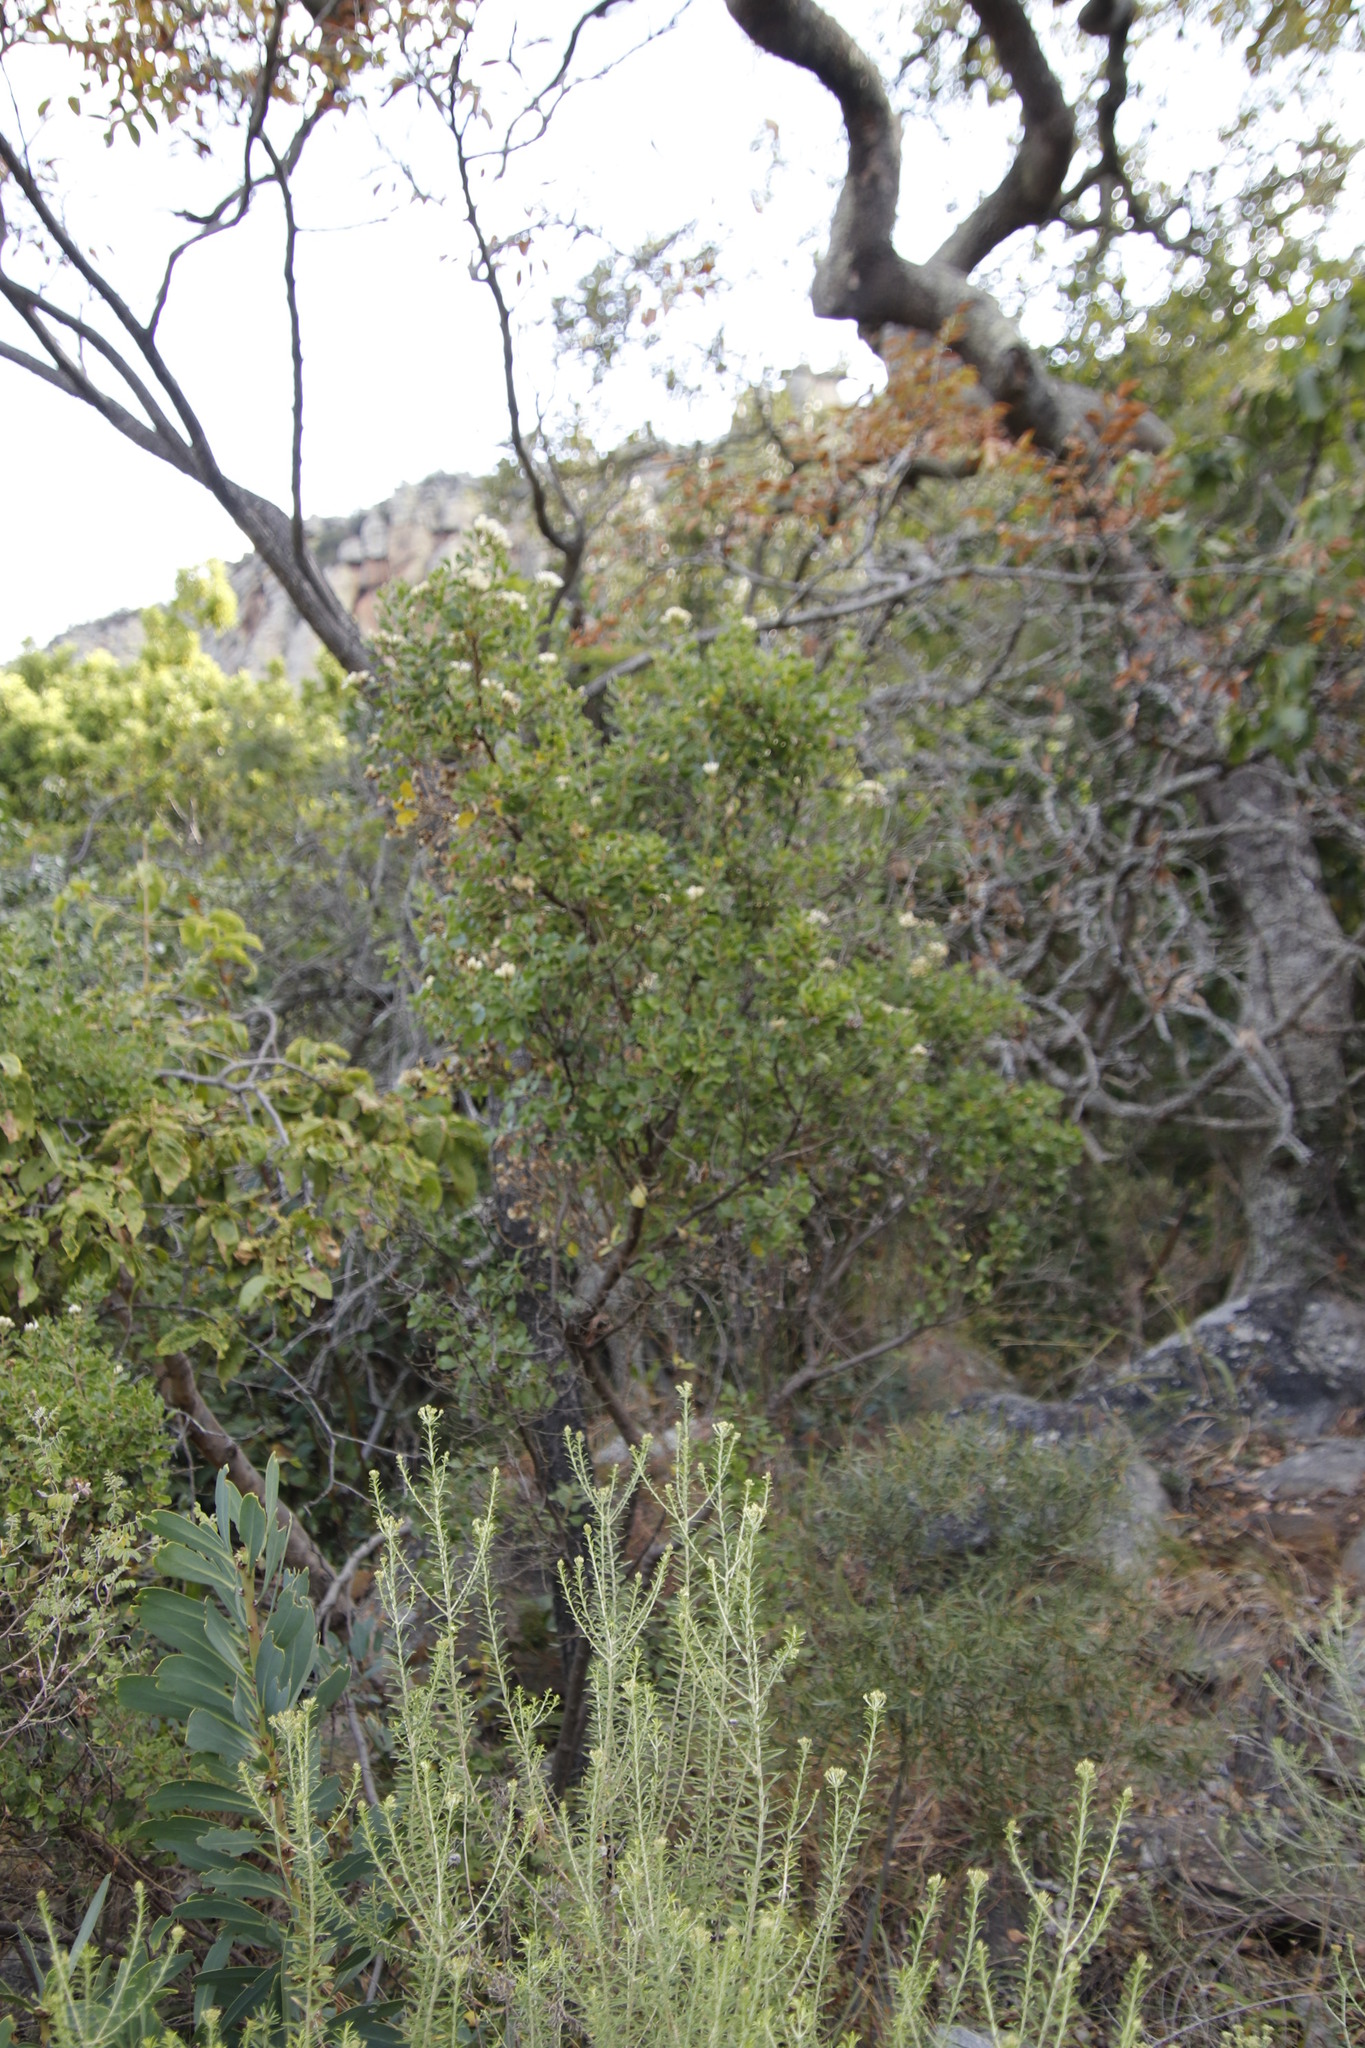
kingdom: Plantae
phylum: Tracheophyta
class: Magnoliopsida
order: Asterales
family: Asteraceae
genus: Gymnanthemum
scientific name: Gymnanthemum triflorum
